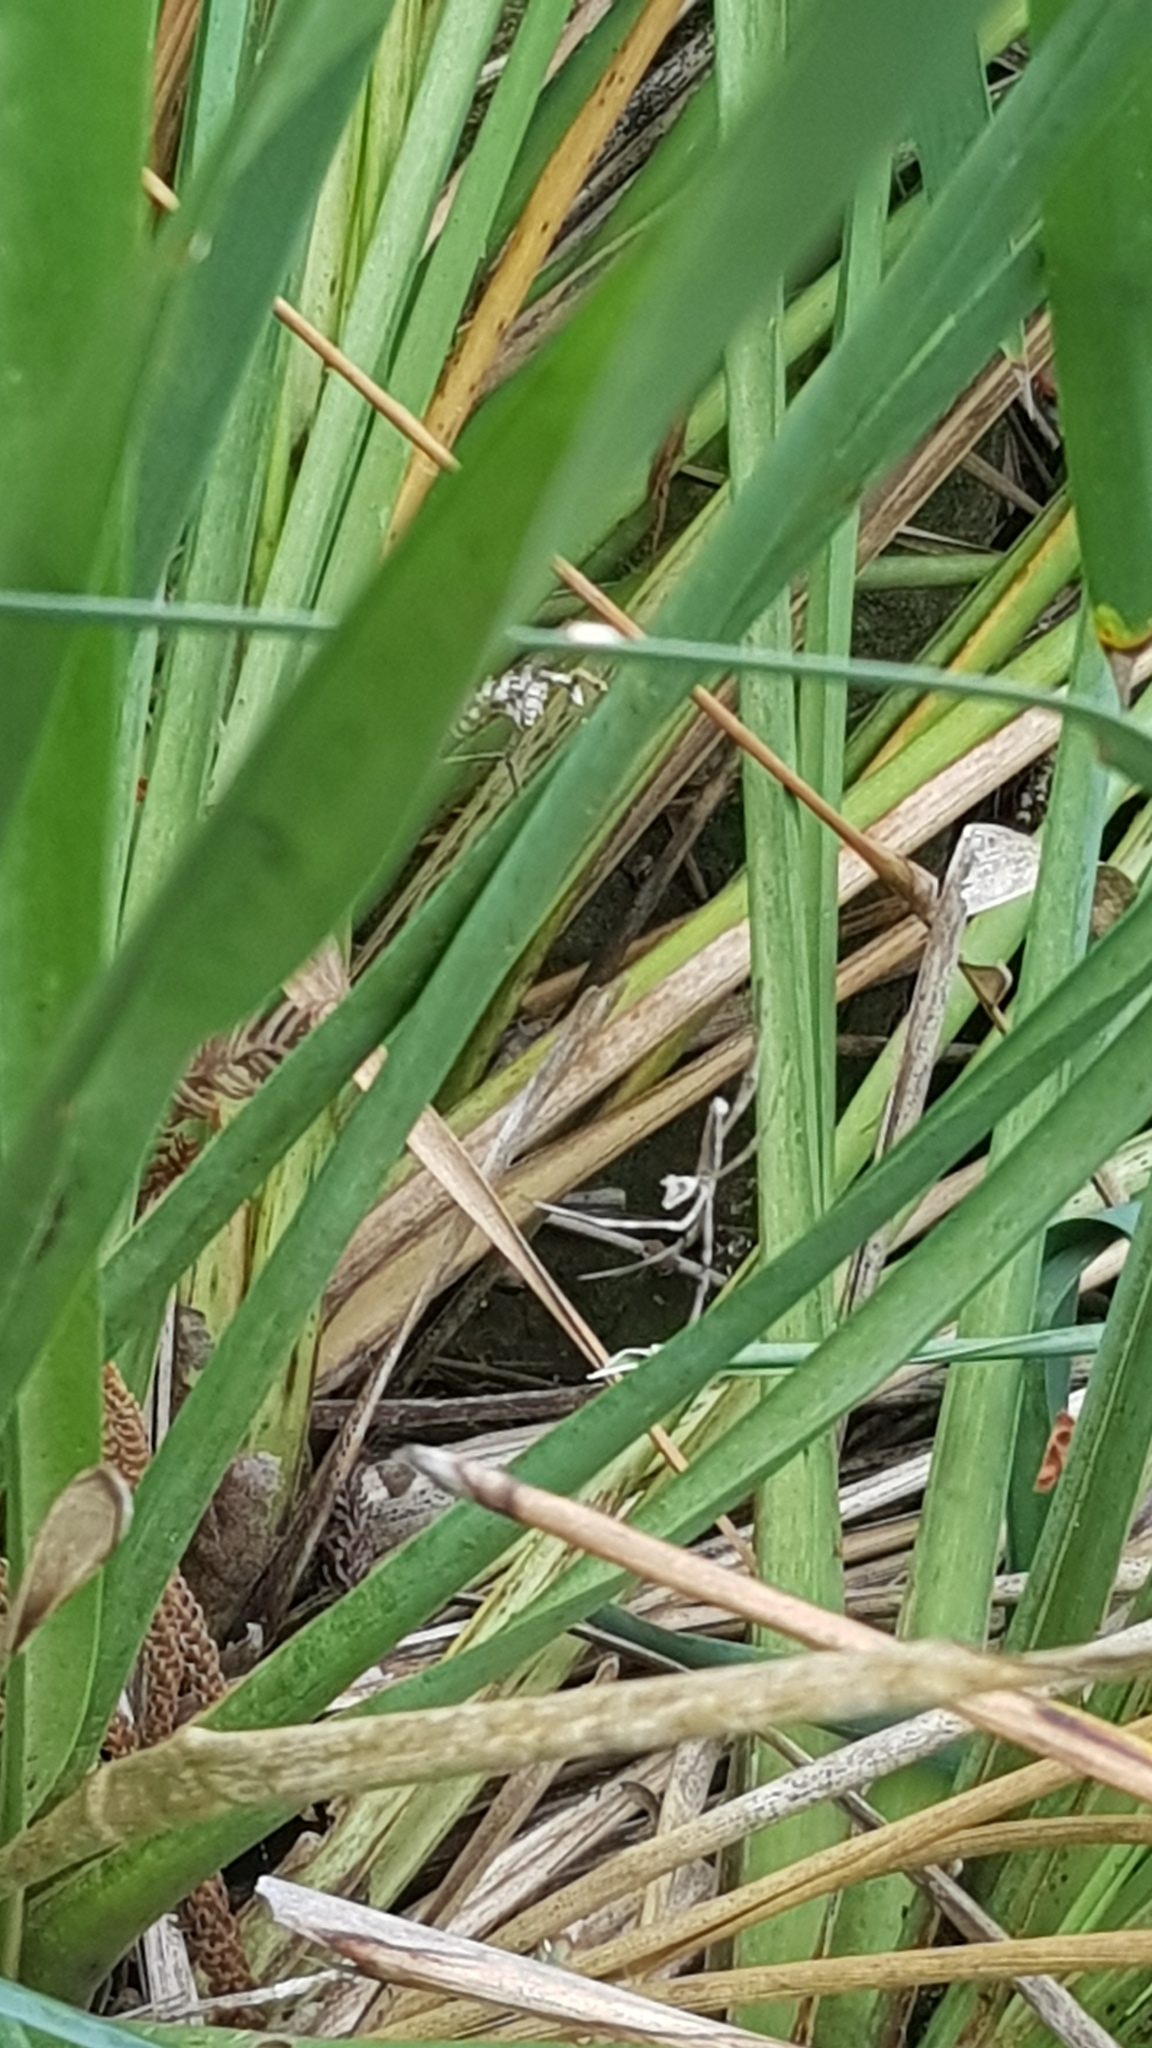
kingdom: Animalia
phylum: Arthropoda
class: Arachnida
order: Araneae
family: Deinopidae
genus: Deinopis
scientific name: Deinopis subrufa
